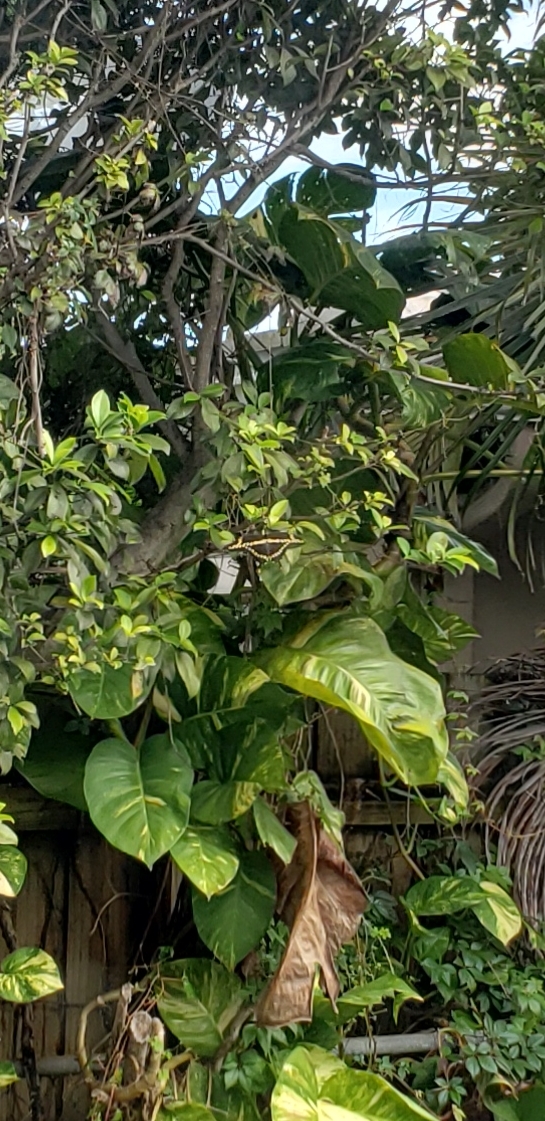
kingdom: Animalia
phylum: Arthropoda
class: Insecta
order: Lepidoptera
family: Papilionidae
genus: Papilio
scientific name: Papilio cresphontes
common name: Giant swallowtail
